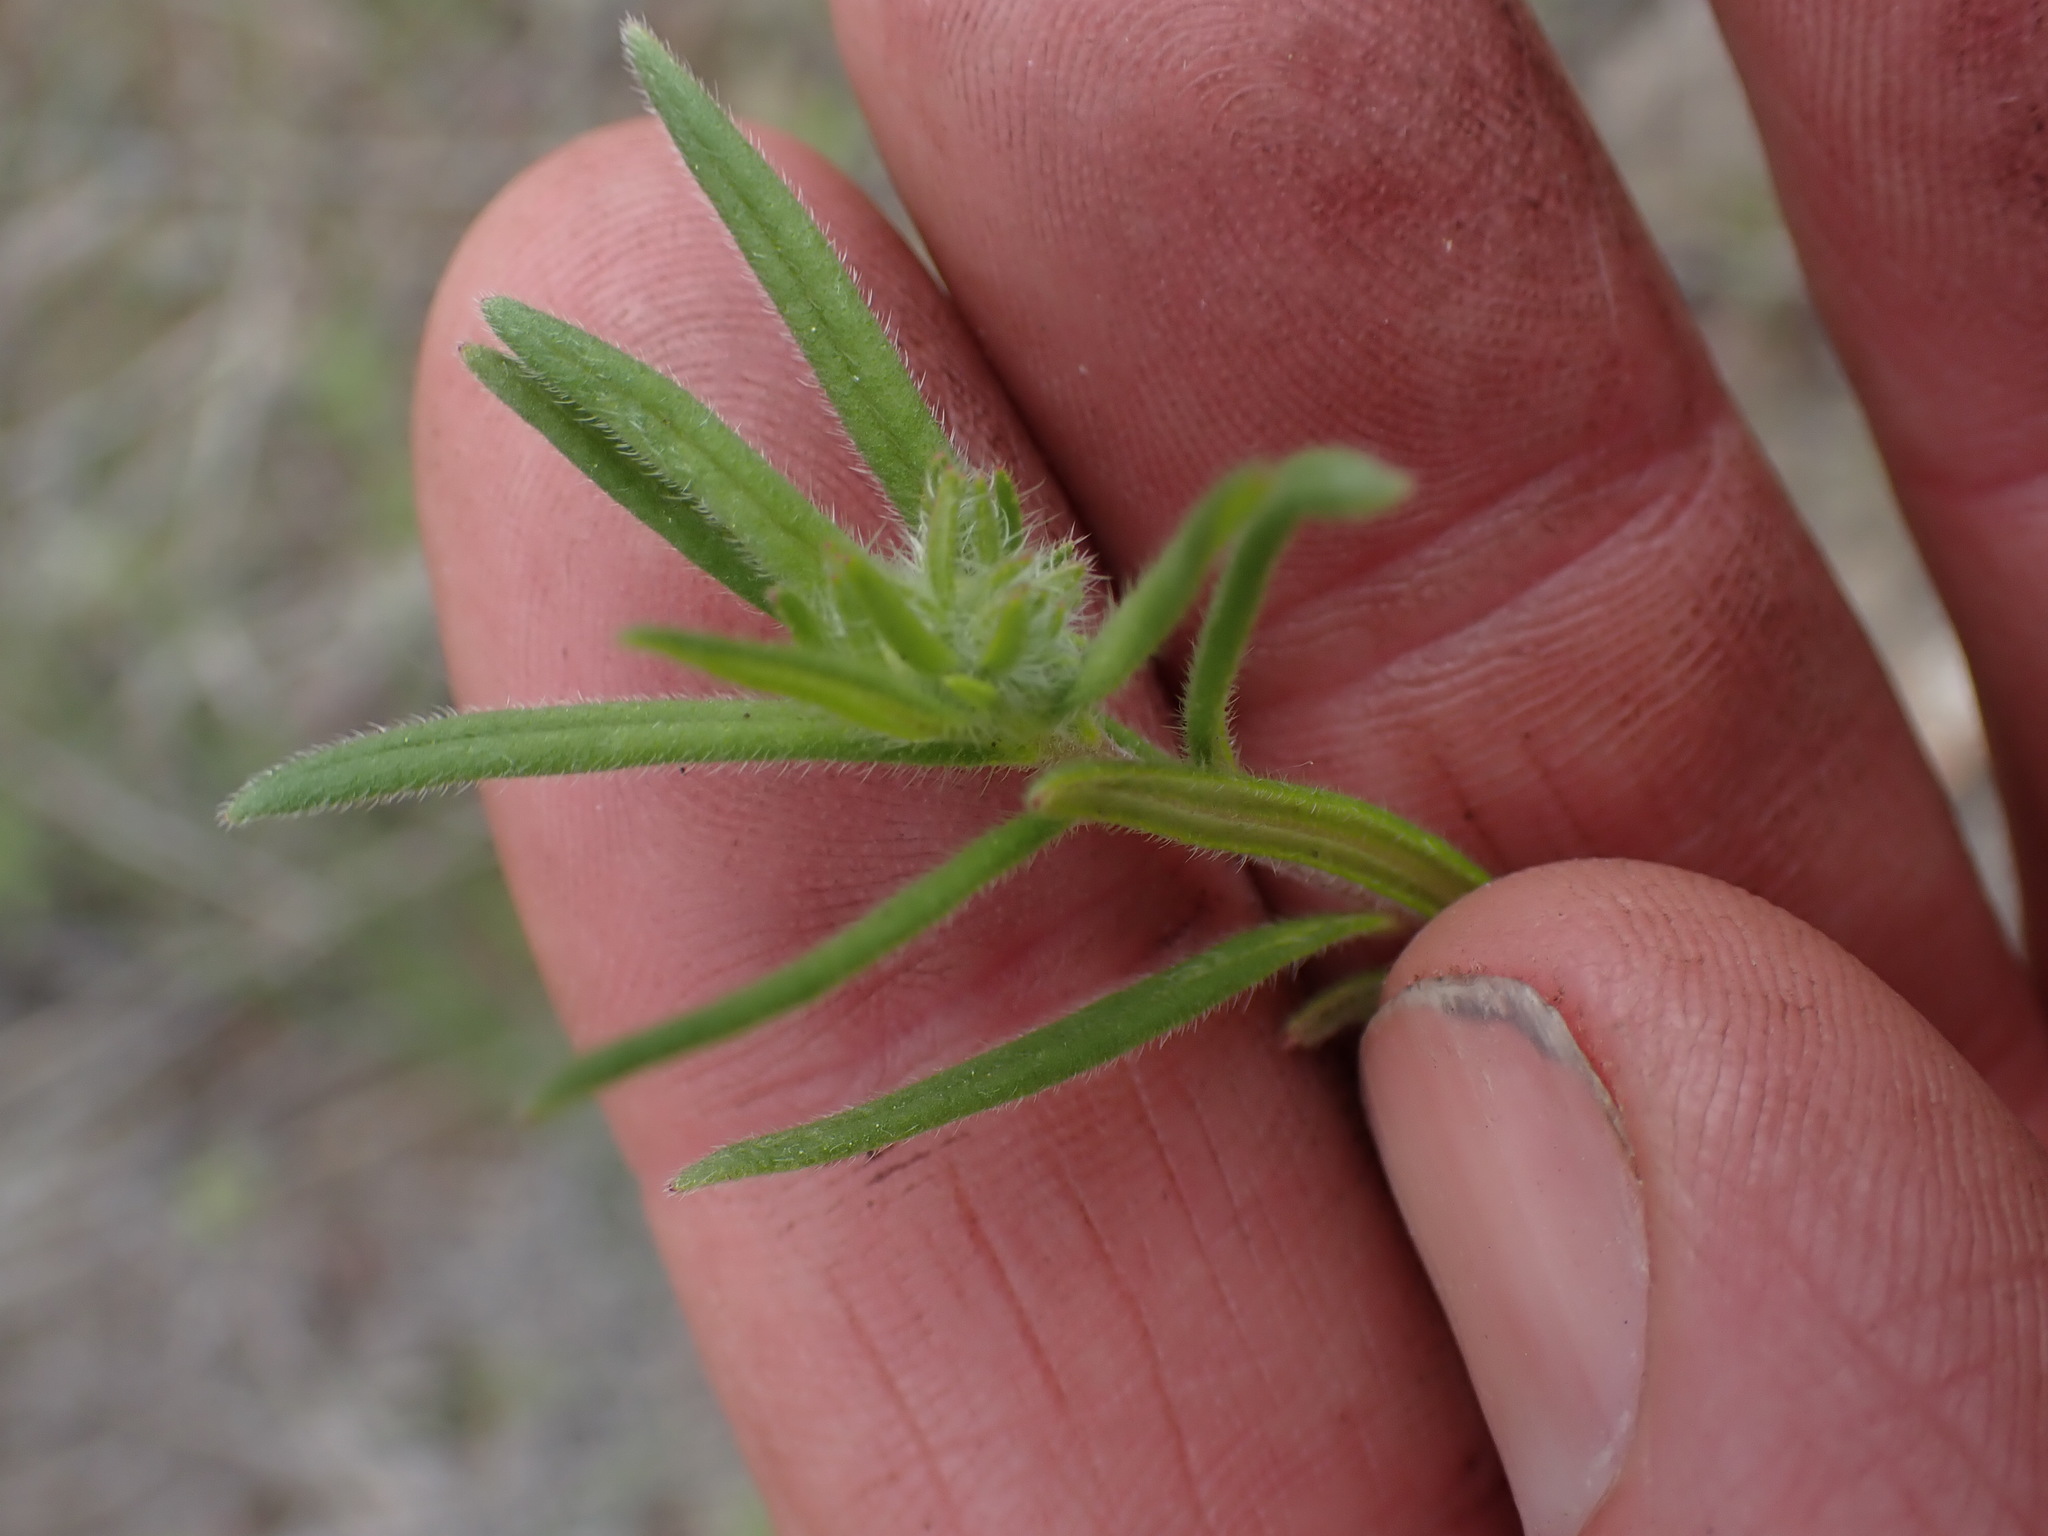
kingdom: Plantae
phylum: Tracheophyta
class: Magnoliopsida
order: Asterales
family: Asteraceae
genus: Madia
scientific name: Madia glomerata
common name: Mountain tarweed
